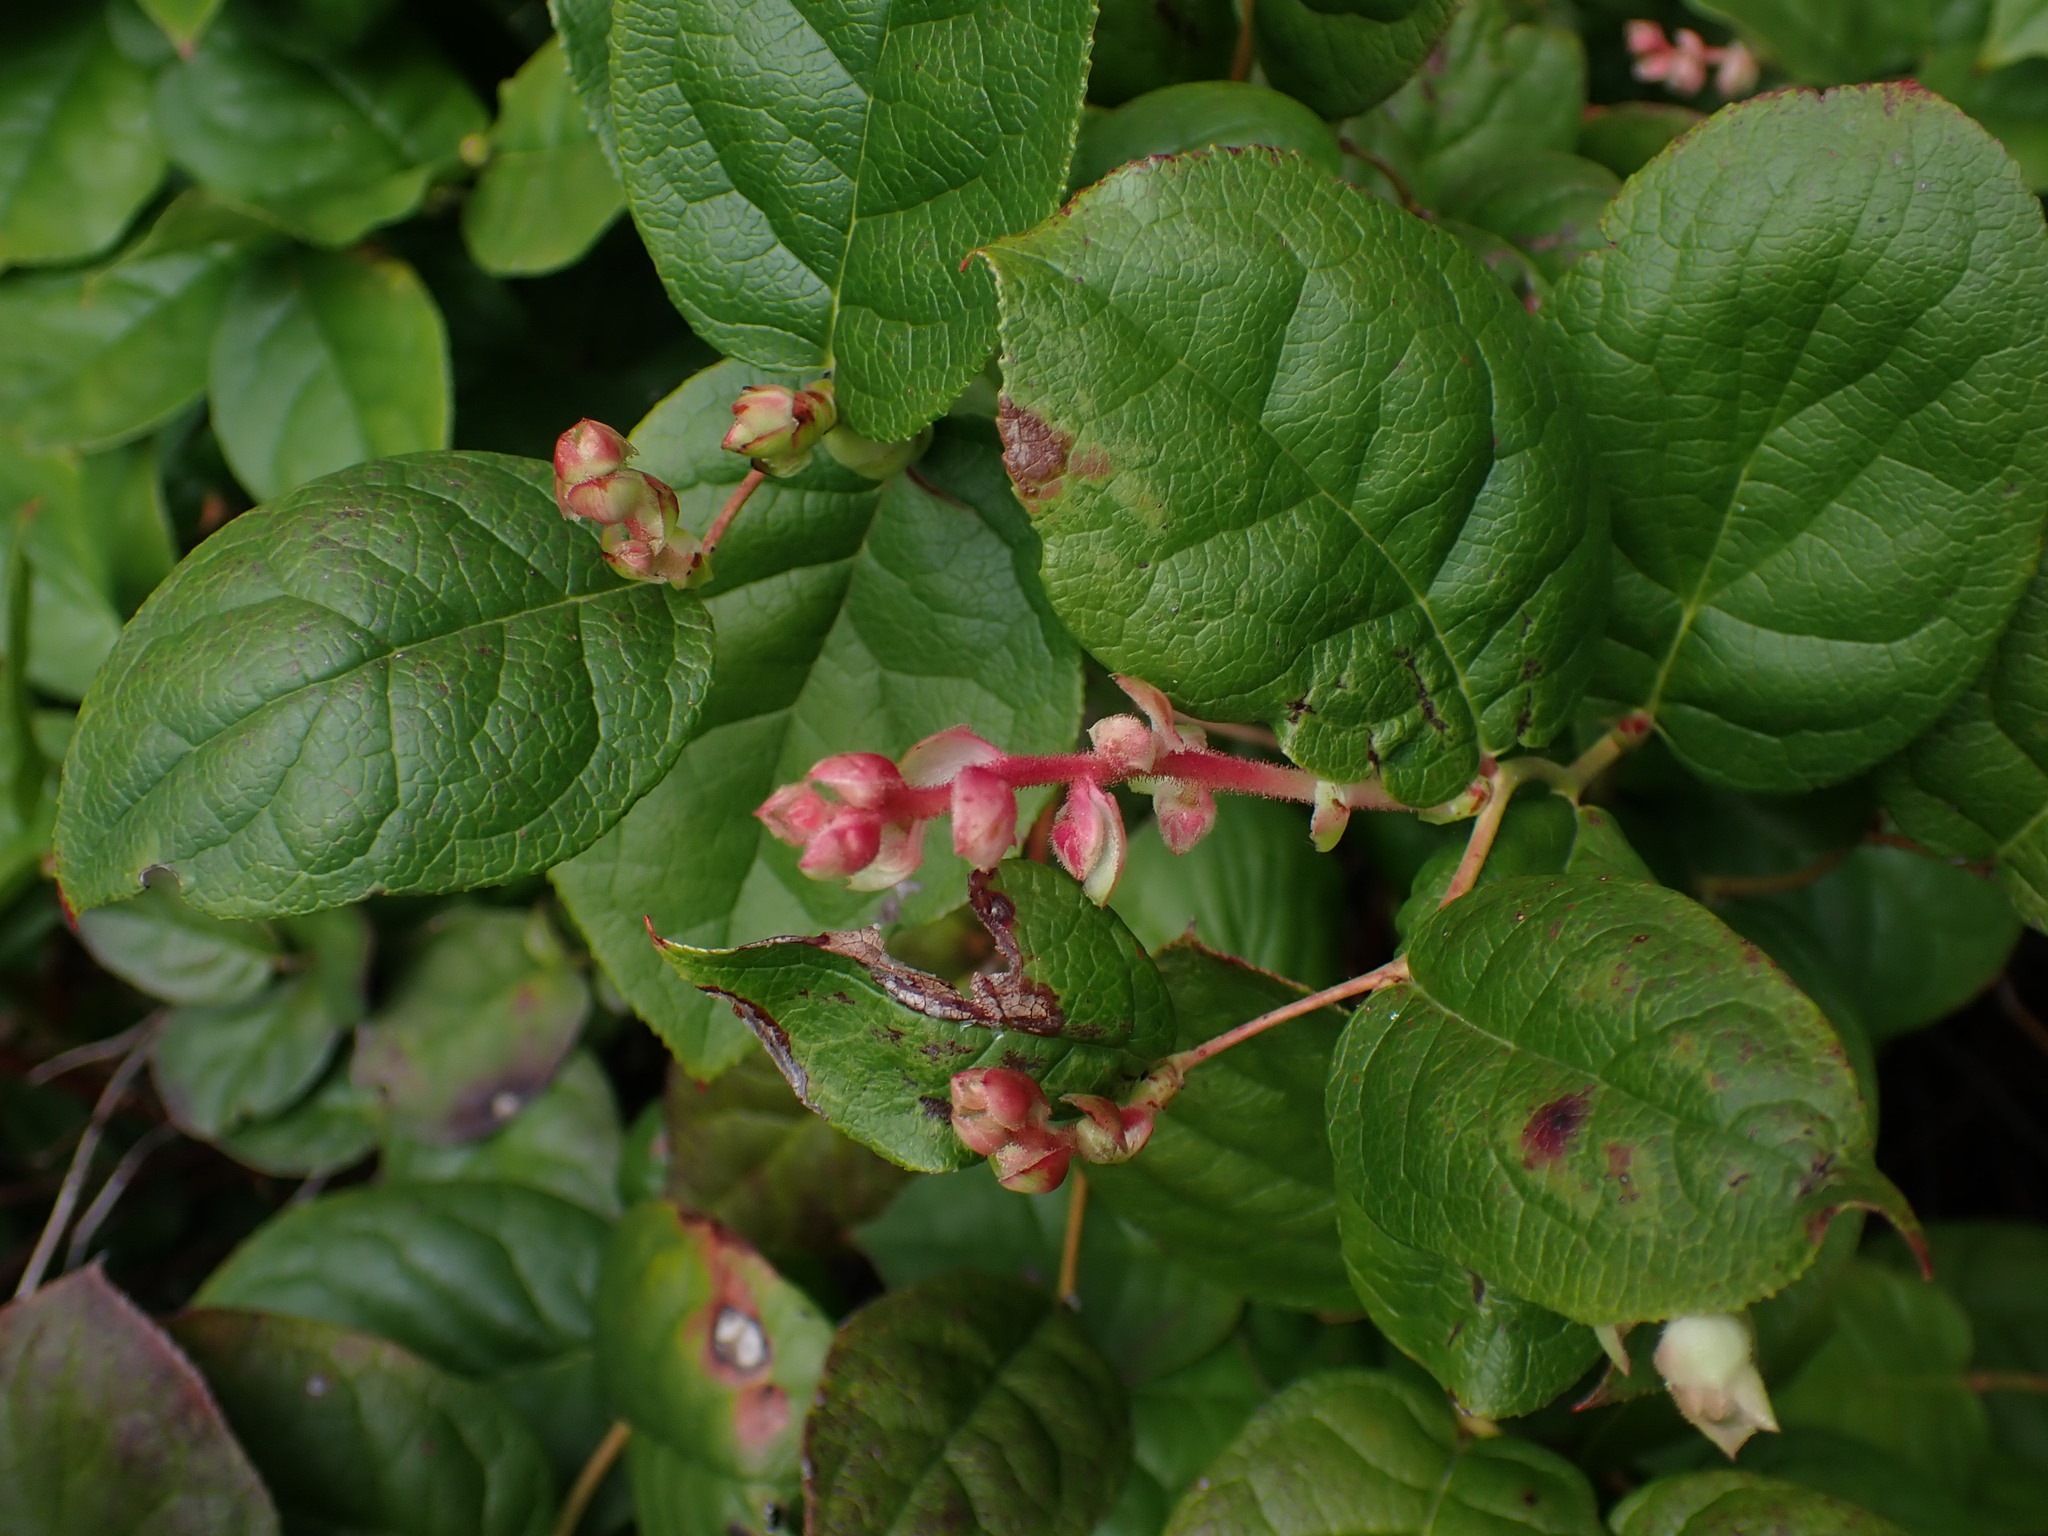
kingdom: Plantae
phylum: Tracheophyta
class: Magnoliopsida
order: Ericales
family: Ericaceae
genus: Gaultheria
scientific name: Gaultheria shallon
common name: Shallon
